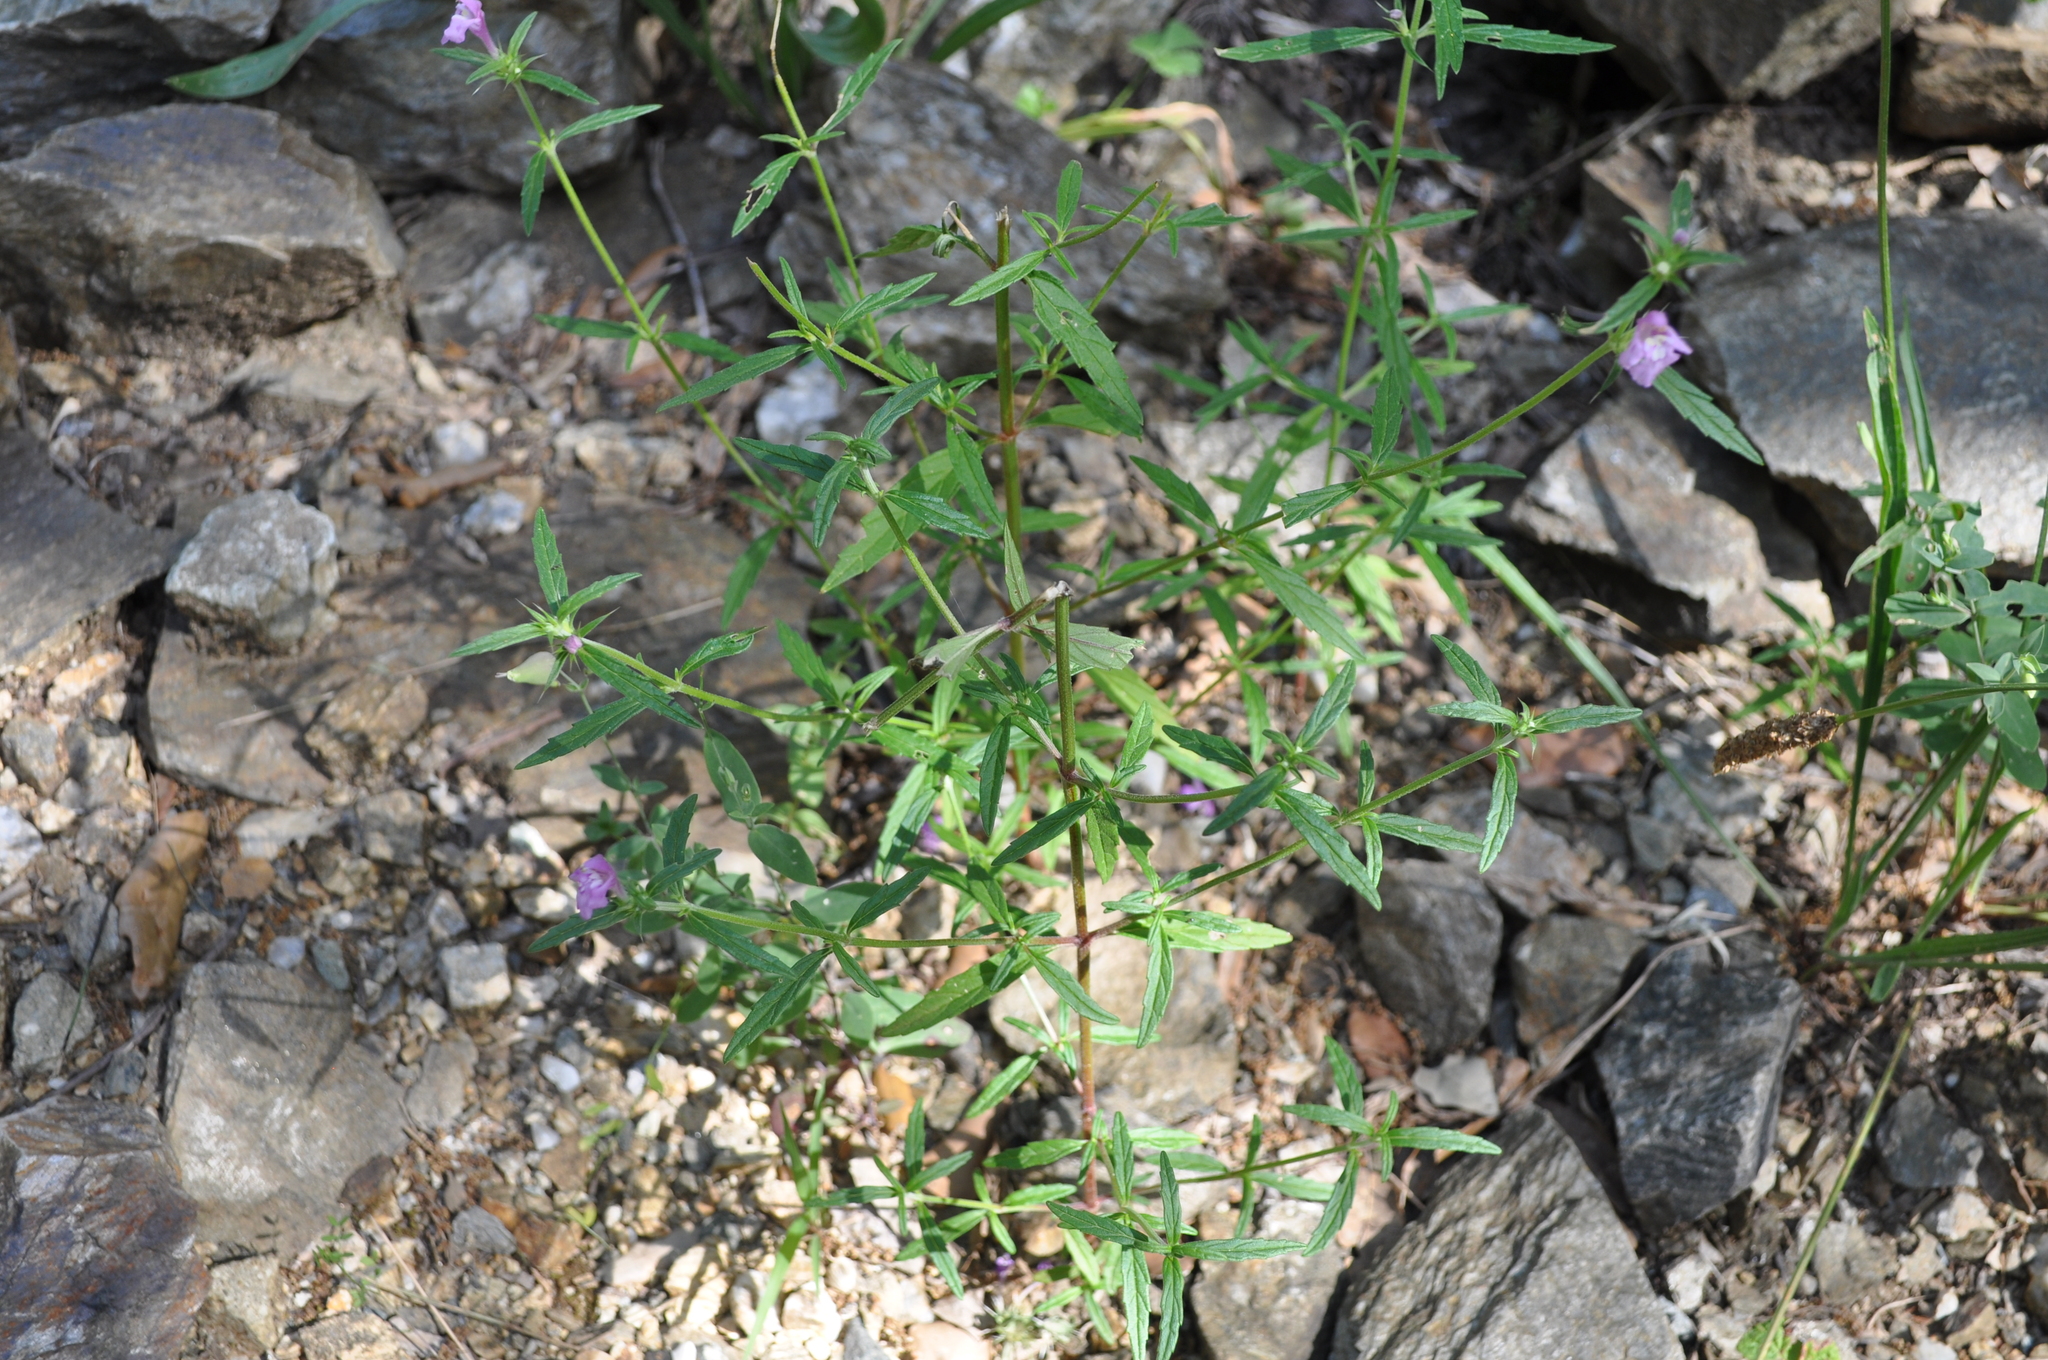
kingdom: Plantae
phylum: Tracheophyta
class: Magnoliopsida
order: Lamiales
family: Lamiaceae
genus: Galeopsis
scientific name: Galeopsis angustifolia
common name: Red hemp-nettle
